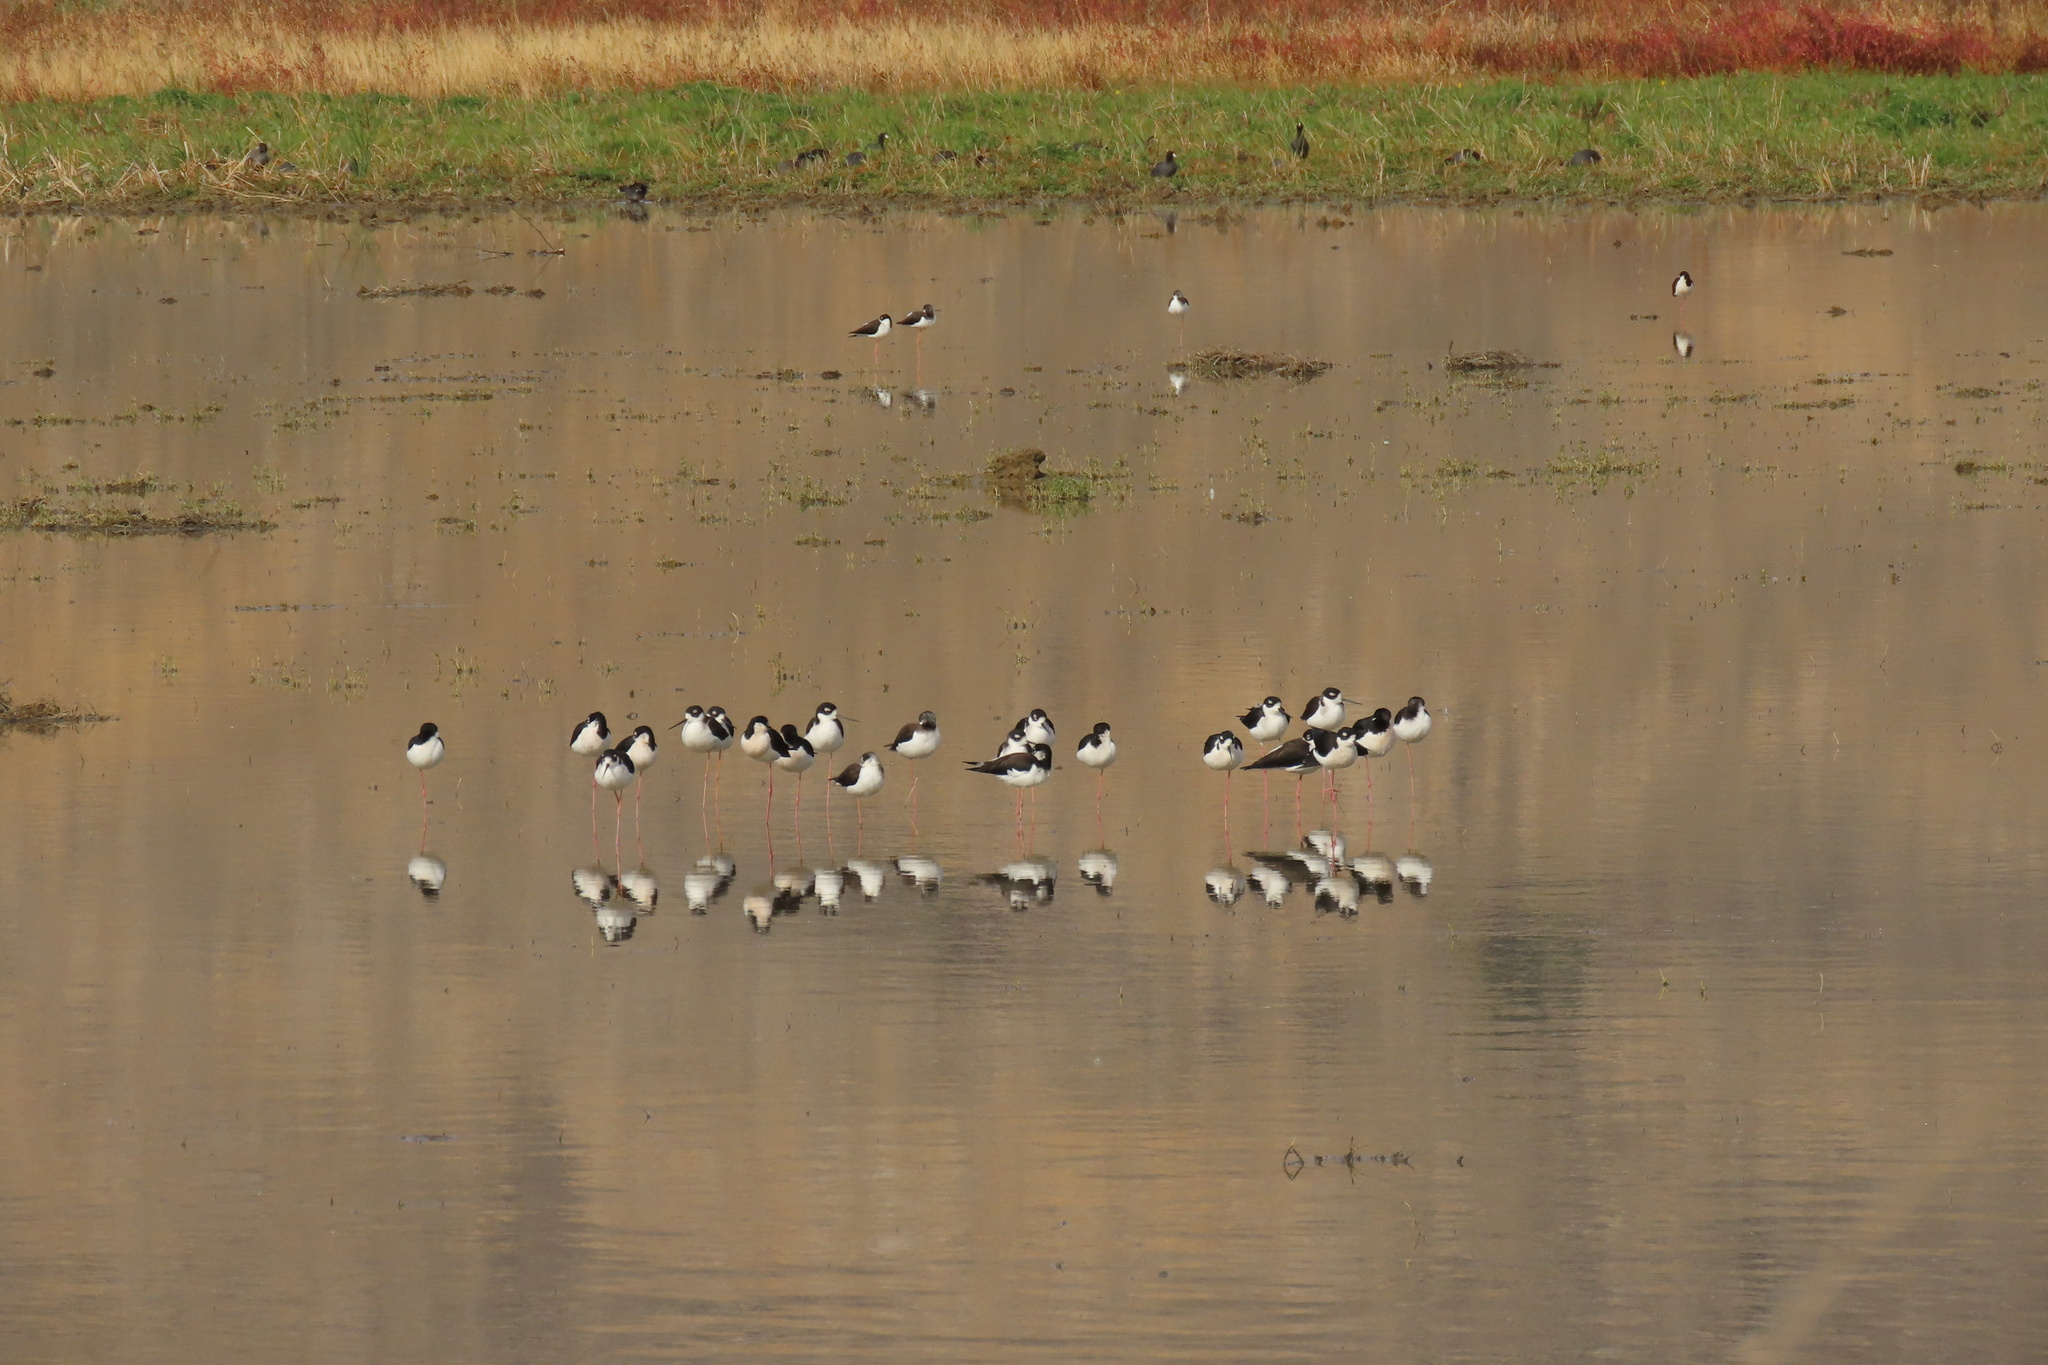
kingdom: Animalia
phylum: Chordata
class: Aves
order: Charadriiformes
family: Recurvirostridae
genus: Himantopus
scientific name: Himantopus mexicanus
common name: Black-necked stilt
